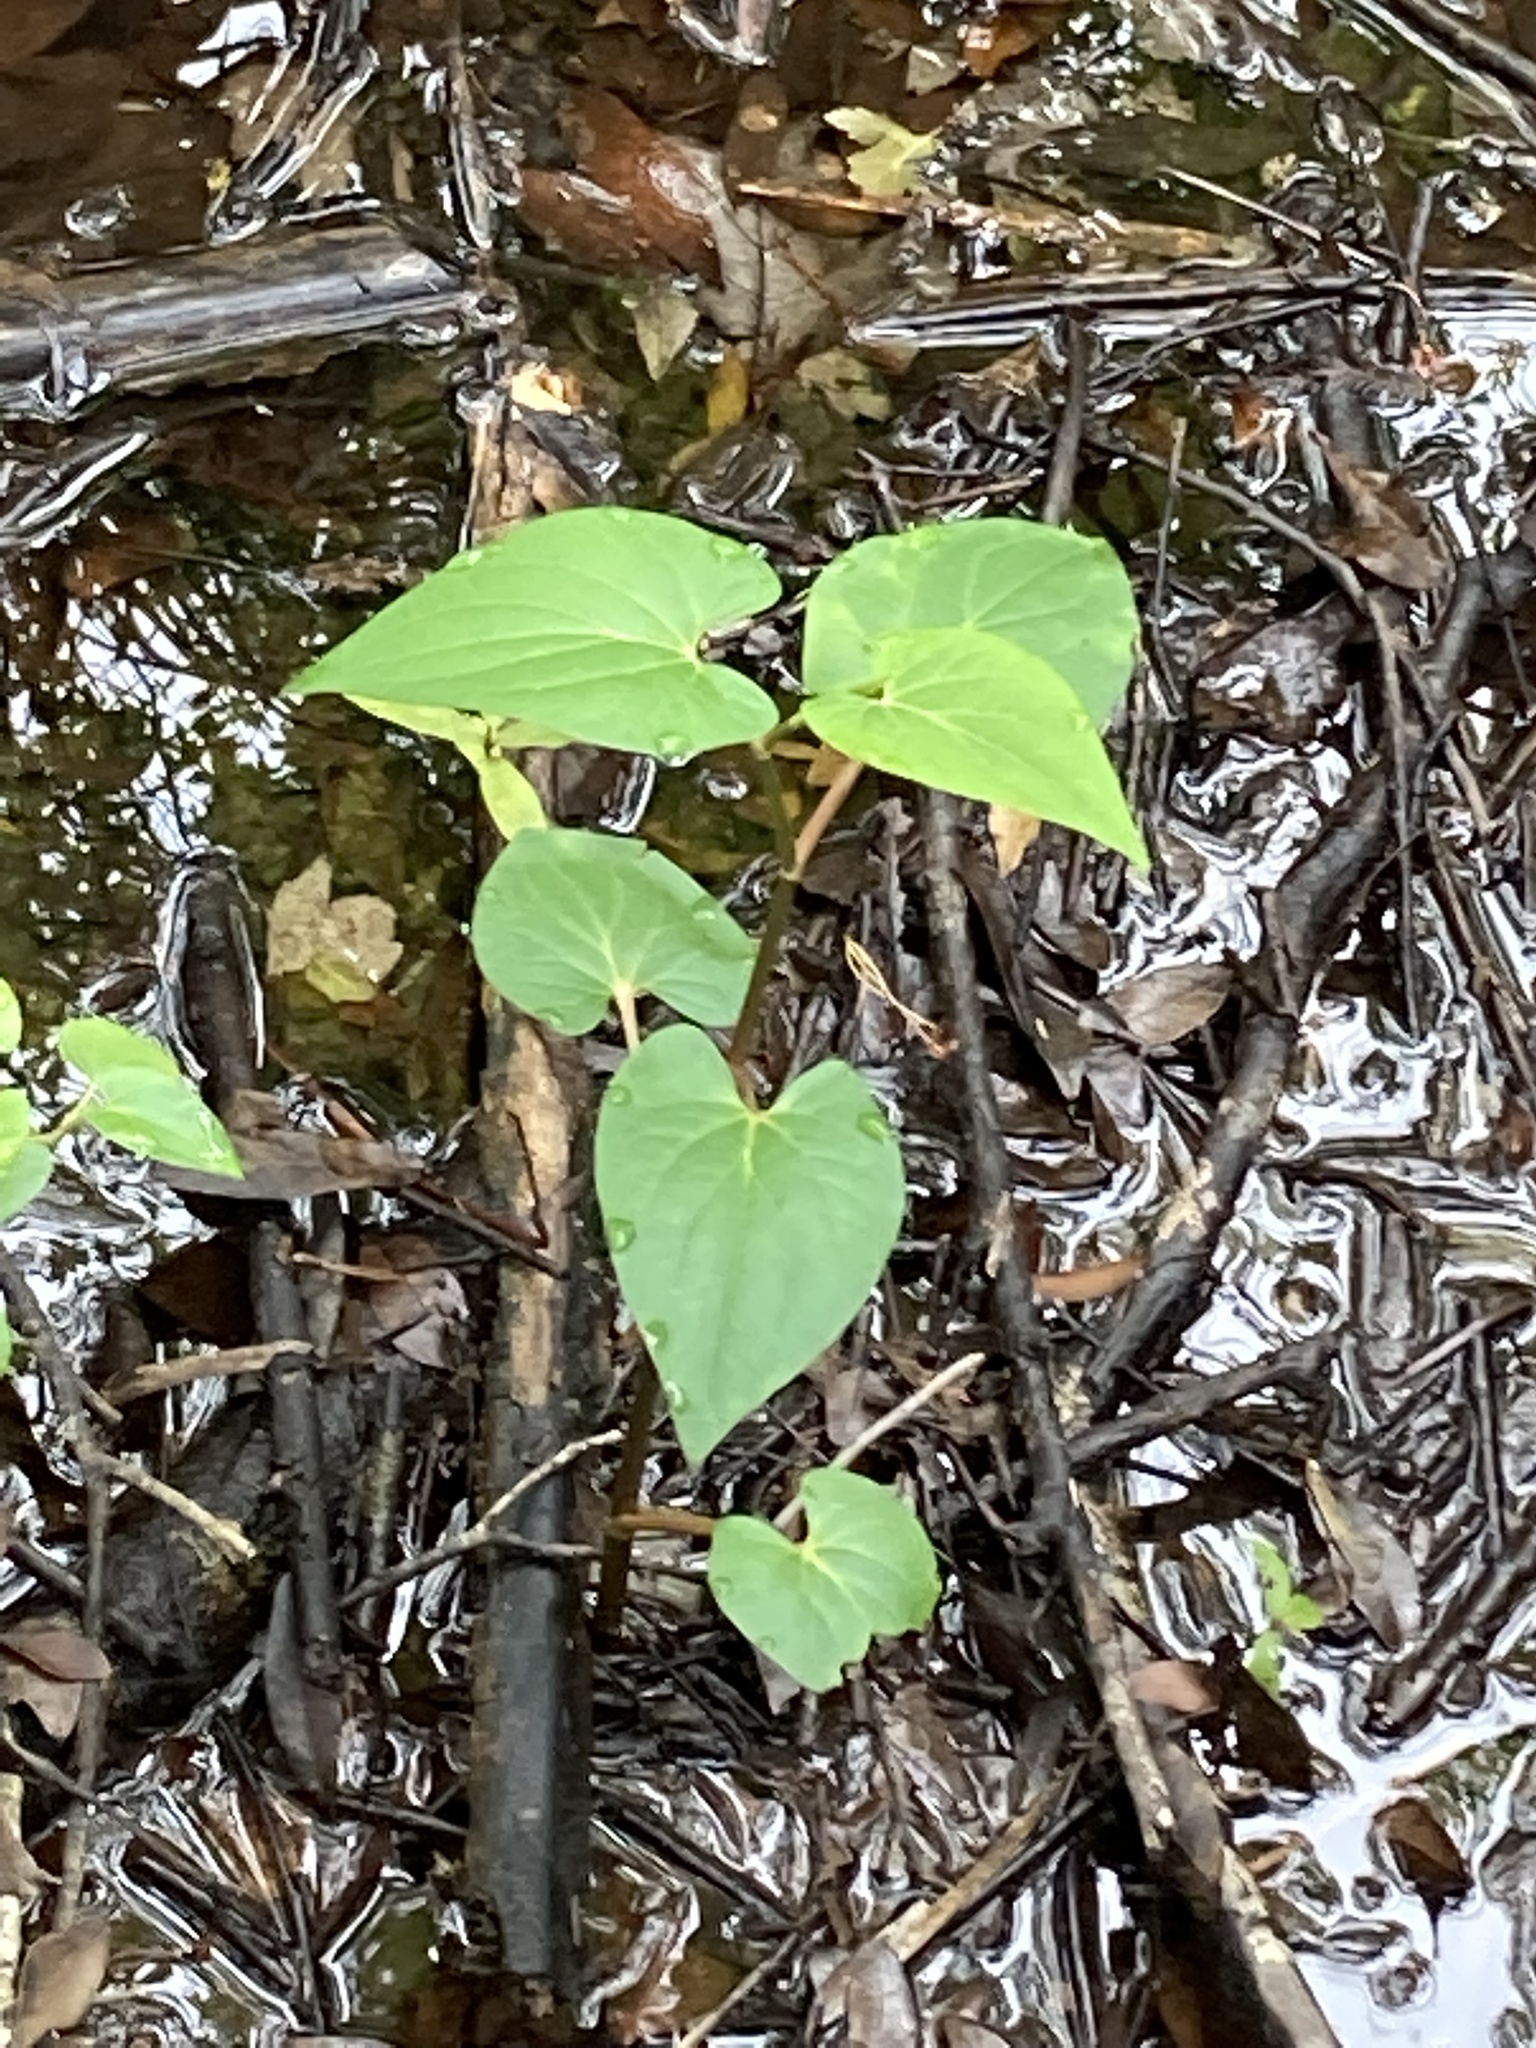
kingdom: Plantae
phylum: Tracheophyta
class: Magnoliopsida
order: Piperales
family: Saururaceae
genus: Saururus
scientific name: Saururus cernuus
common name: Lizard's-tail
